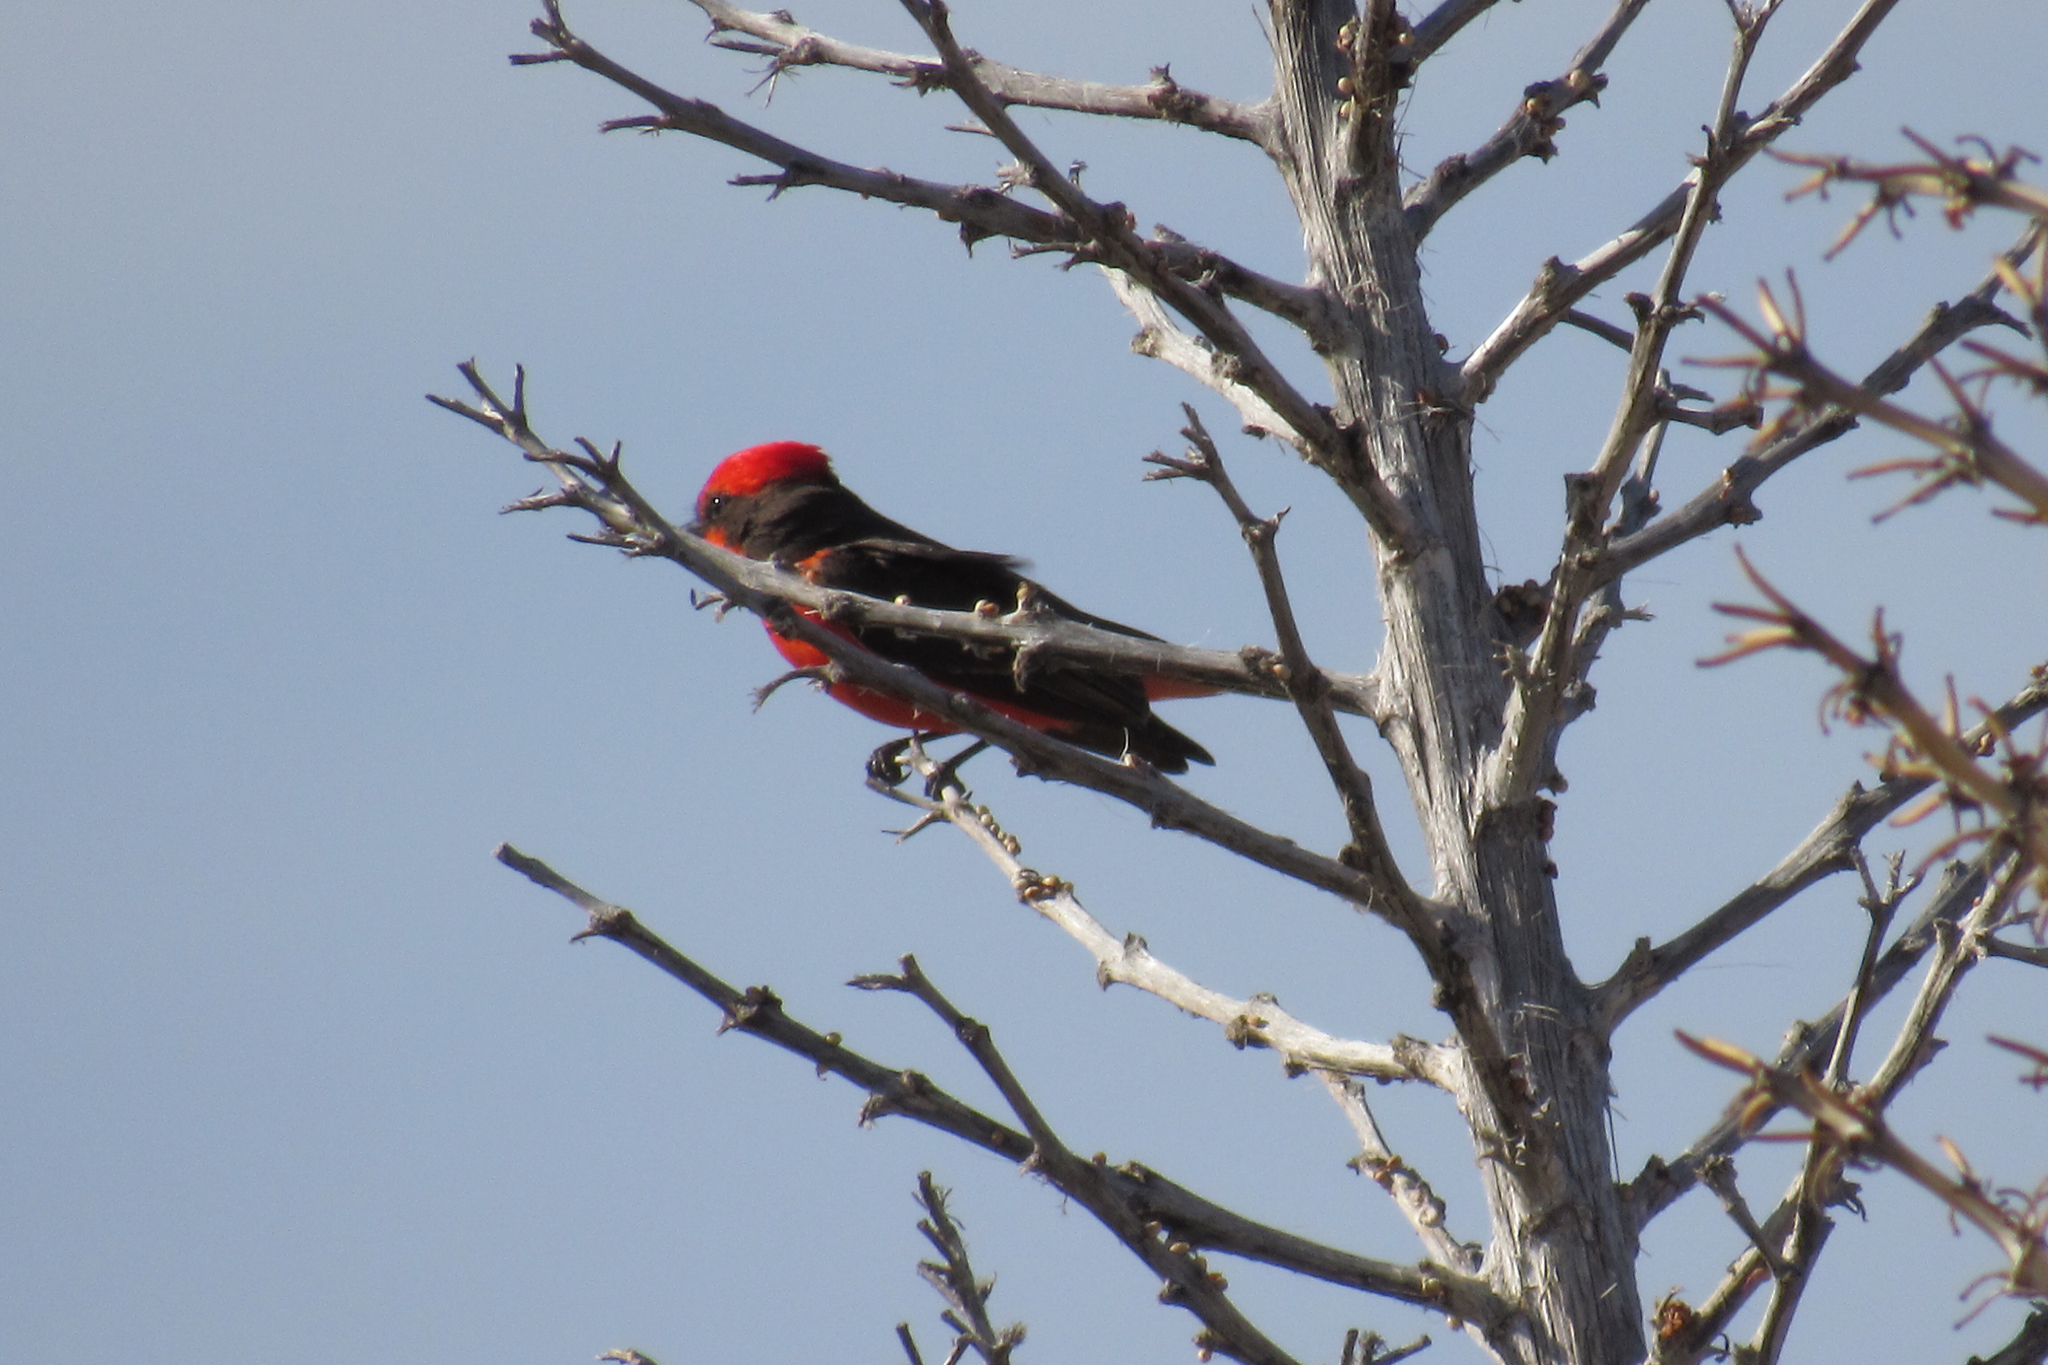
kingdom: Animalia
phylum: Chordata
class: Aves
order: Passeriformes
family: Tyrannidae
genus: Pyrocephalus
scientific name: Pyrocephalus rubinus
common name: Vermilion flycatcher
